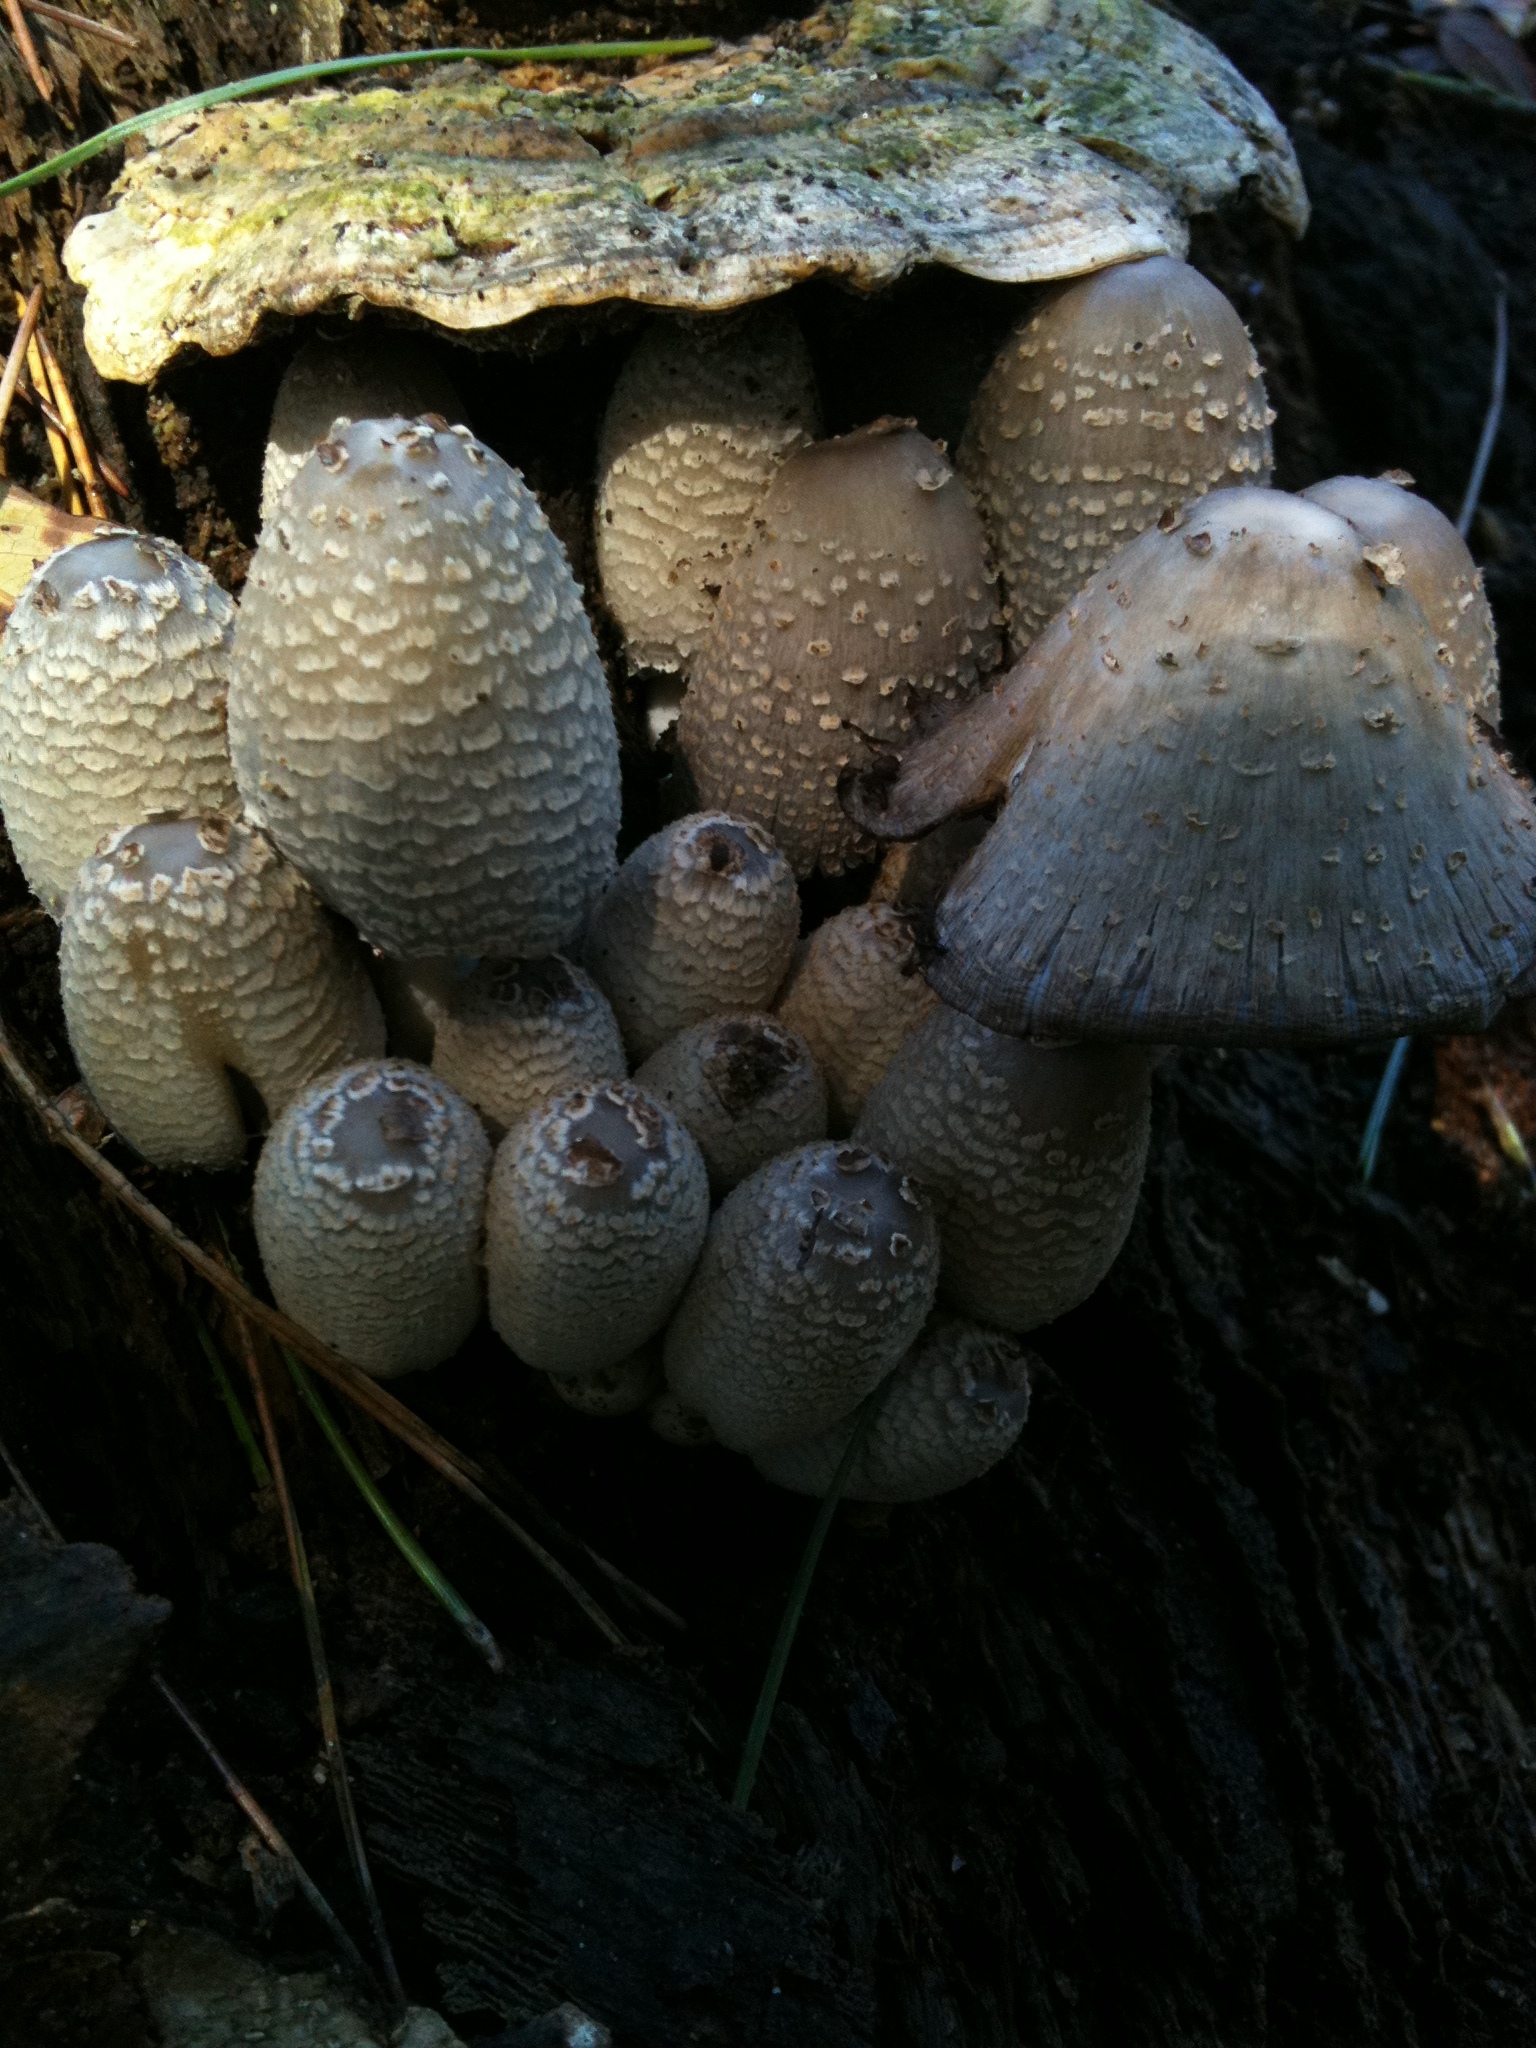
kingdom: Fungi
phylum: Basidiomycota
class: Agaricomycetes
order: Agaricales
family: Psathyrellaceae
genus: Coprinopsis
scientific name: Coprinopsis strossmayeri
